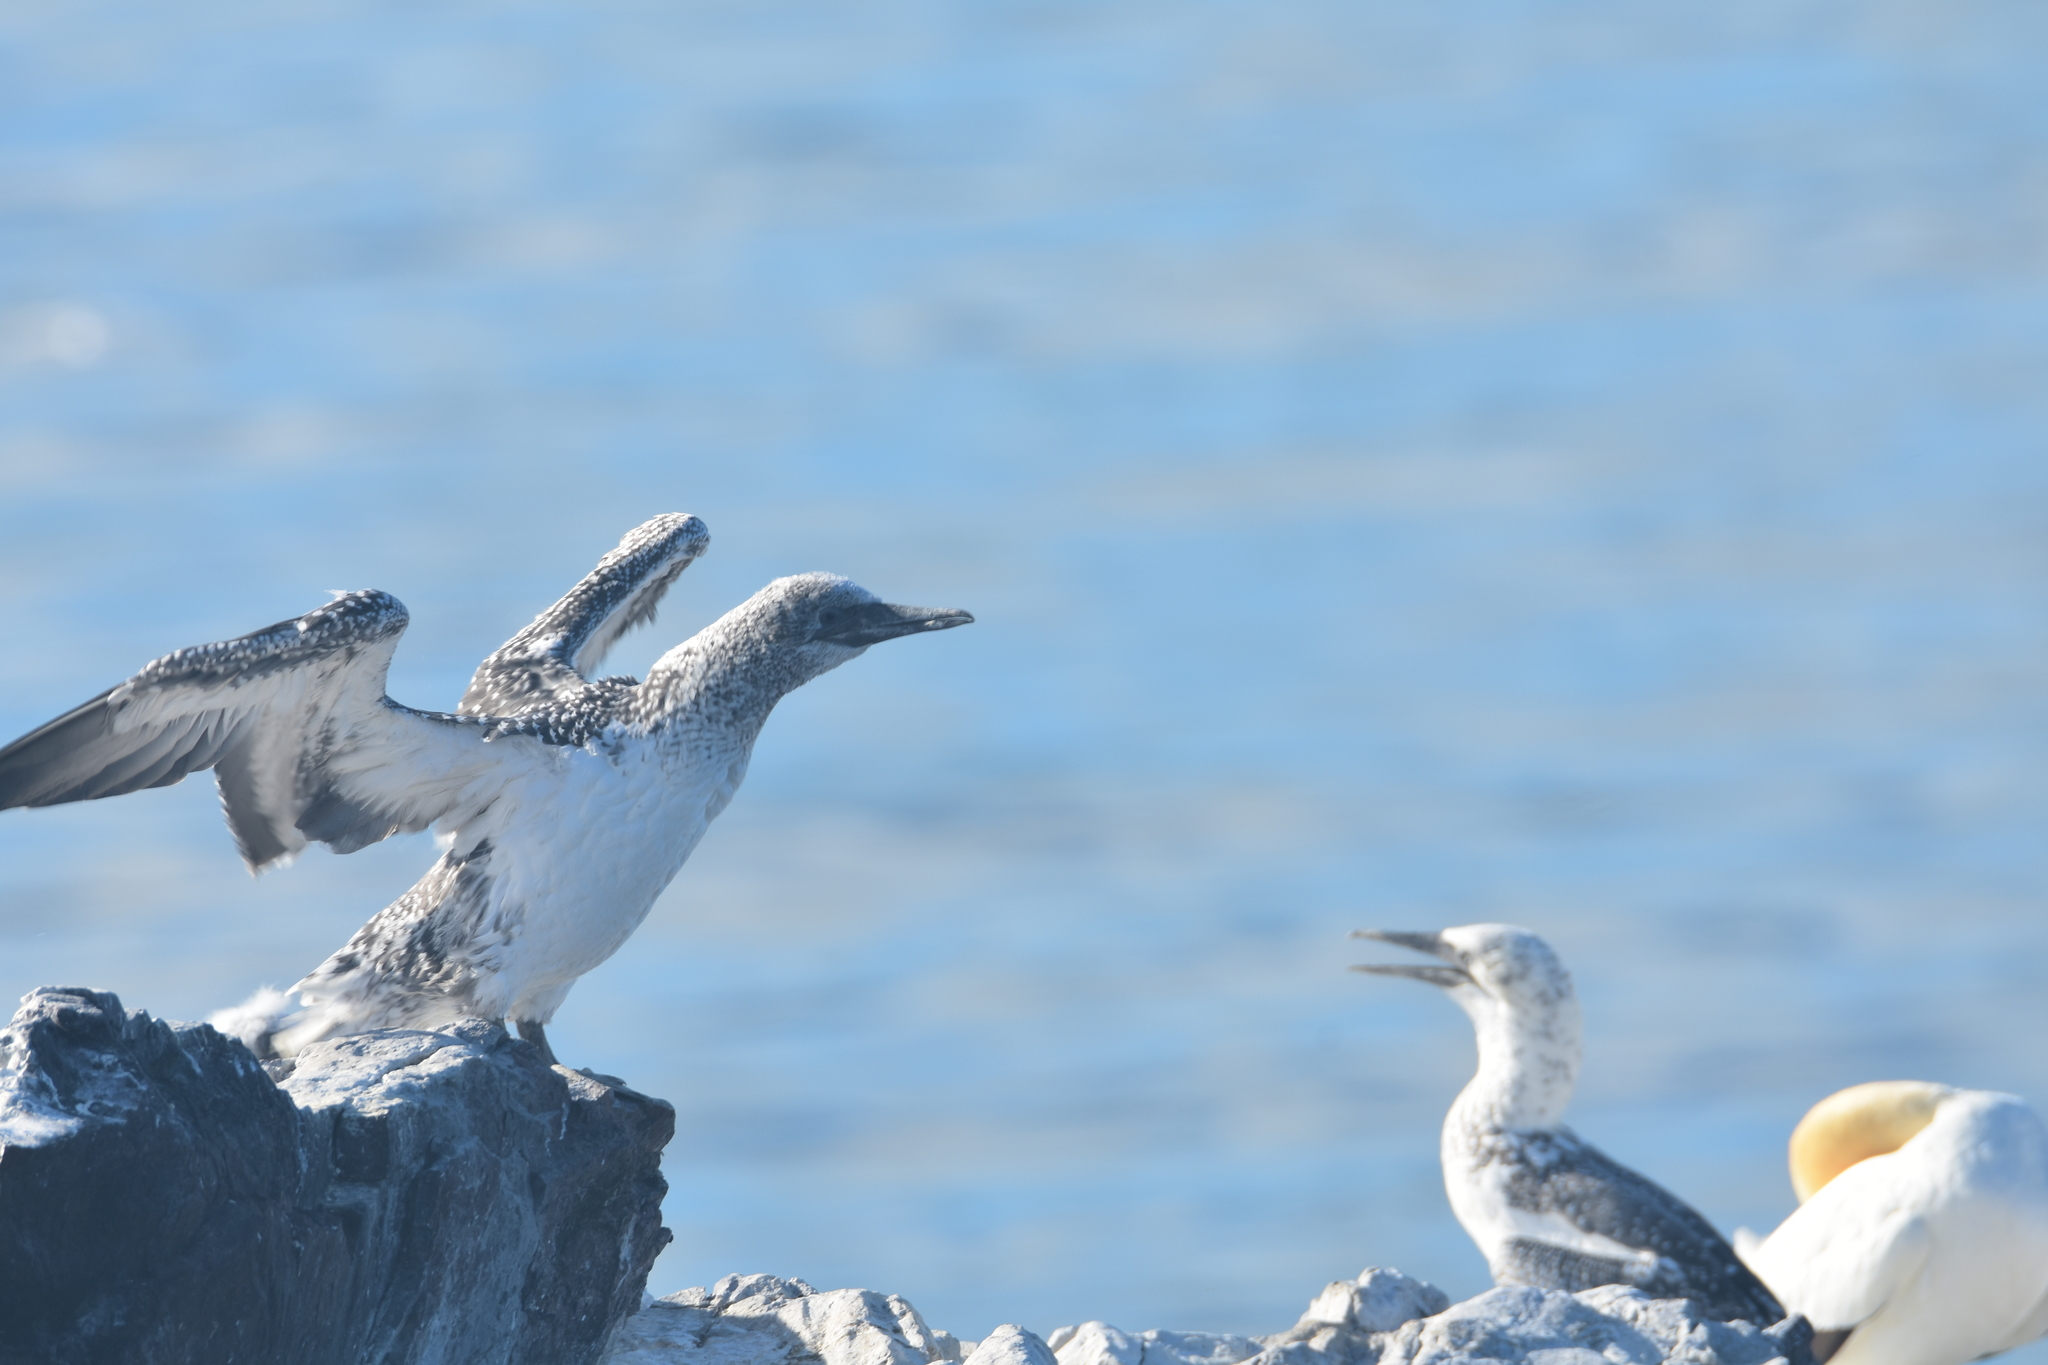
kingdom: Animalia
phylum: Chordata
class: Aves
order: Suliformes
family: Sulidae
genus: Morus
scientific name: Morus serrator
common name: Australasian gannet
